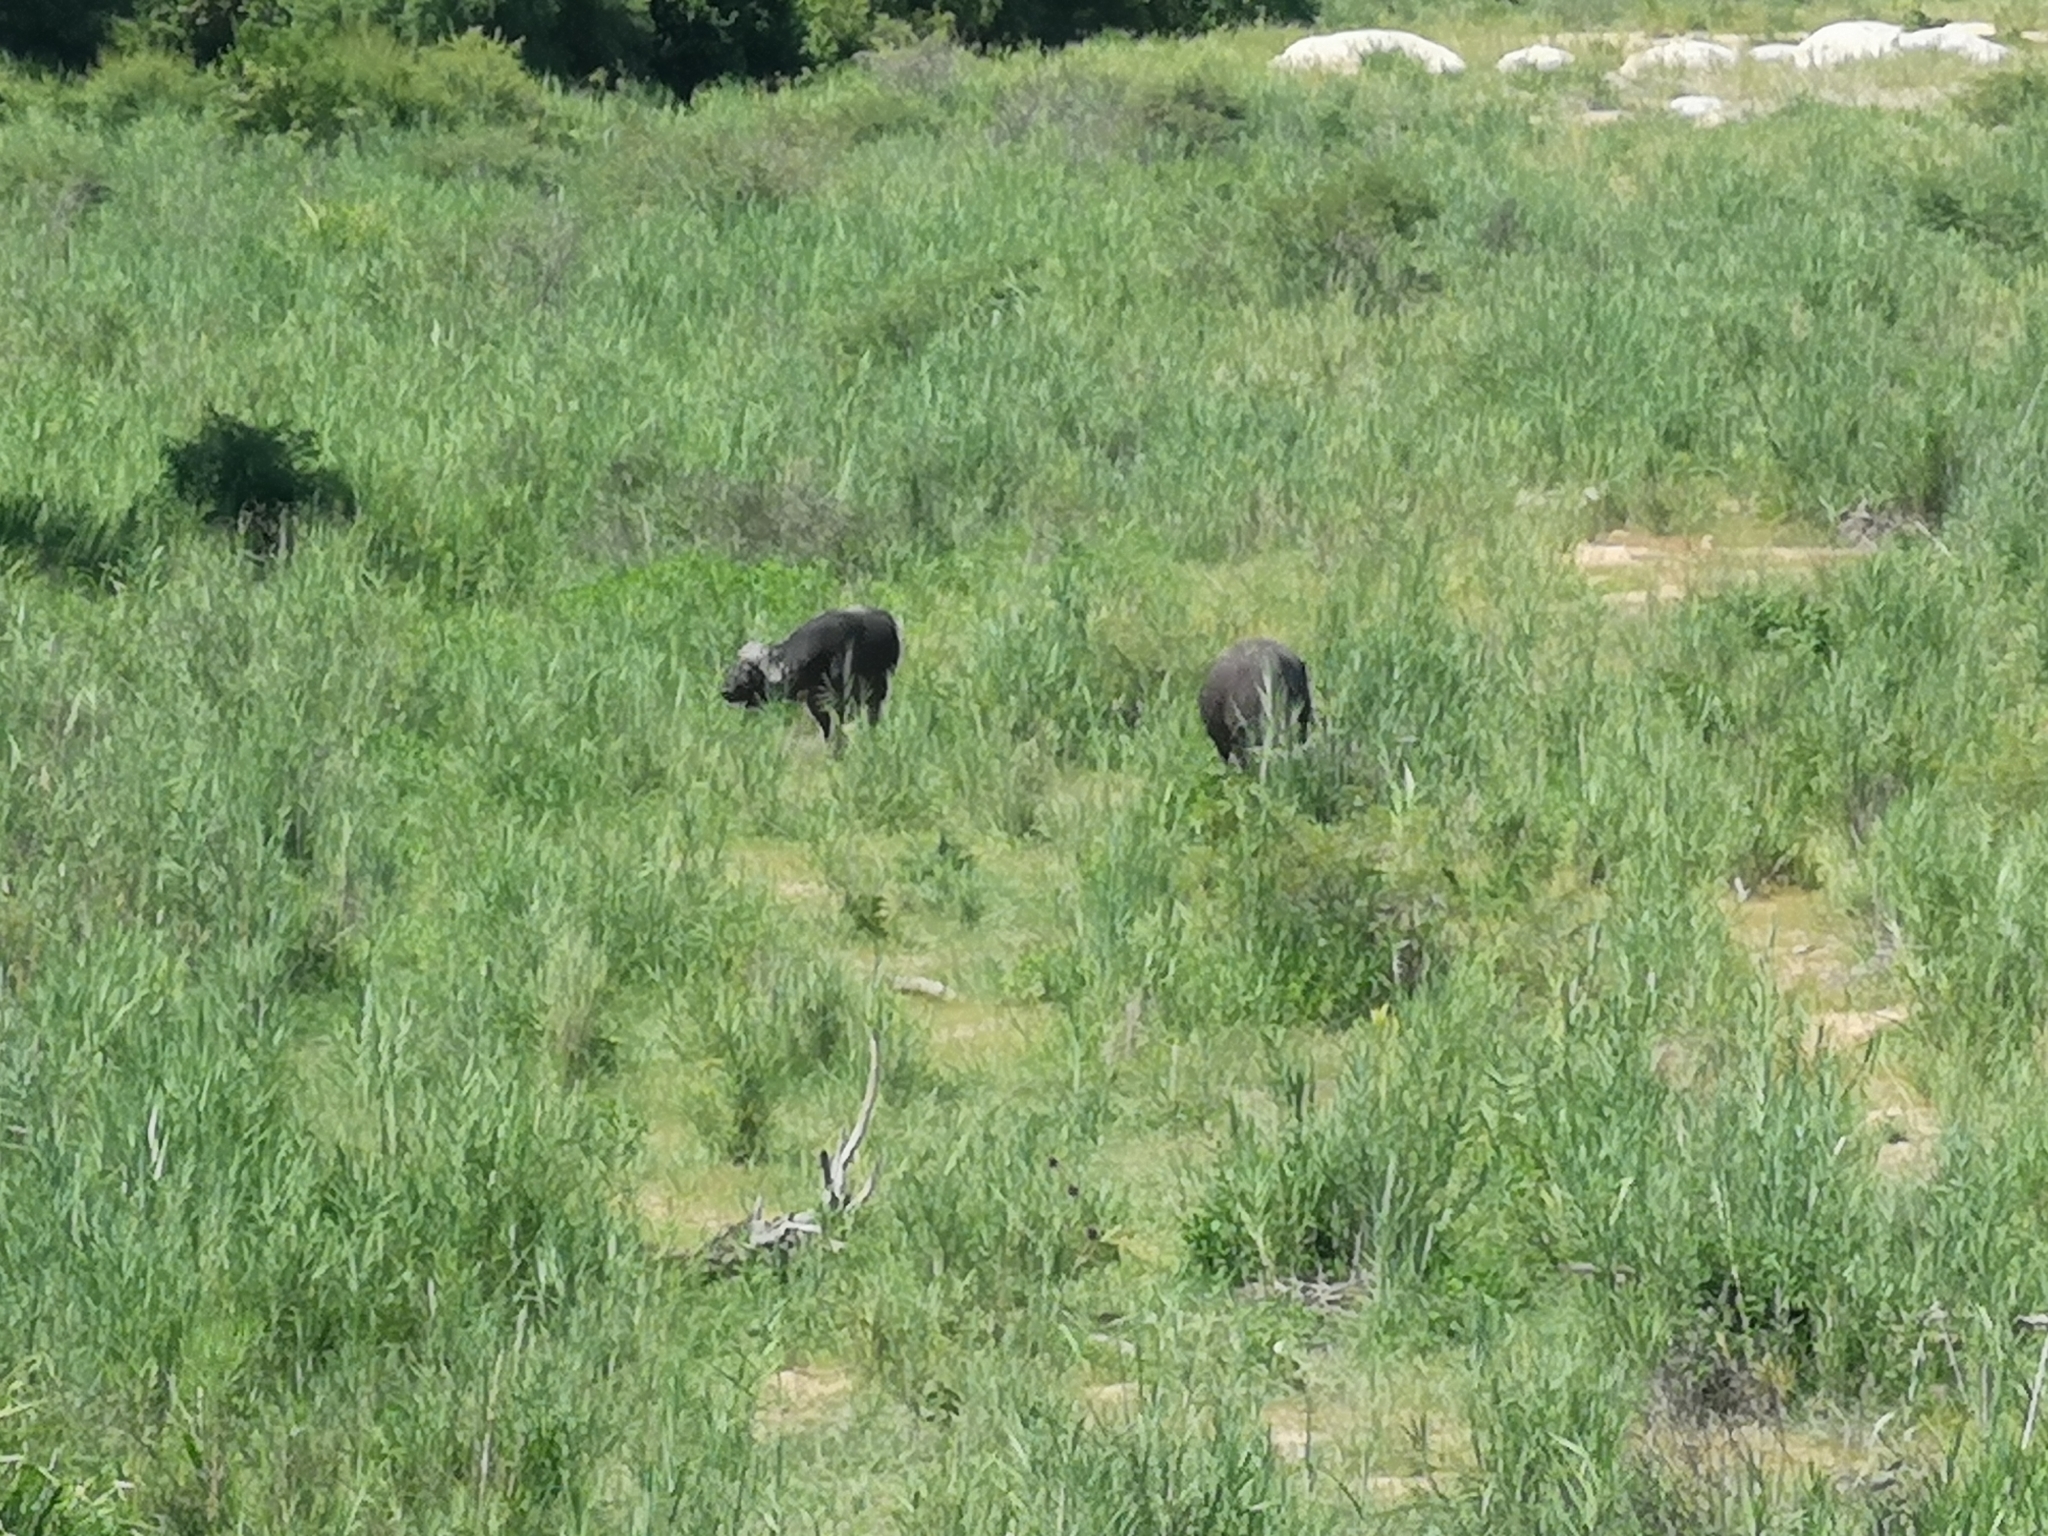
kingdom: Animalia
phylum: Chordata
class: Mammalia
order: Artiodactyla
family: Bovidae
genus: Syncerus
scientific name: Syncerus caffer
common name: African buffalo
